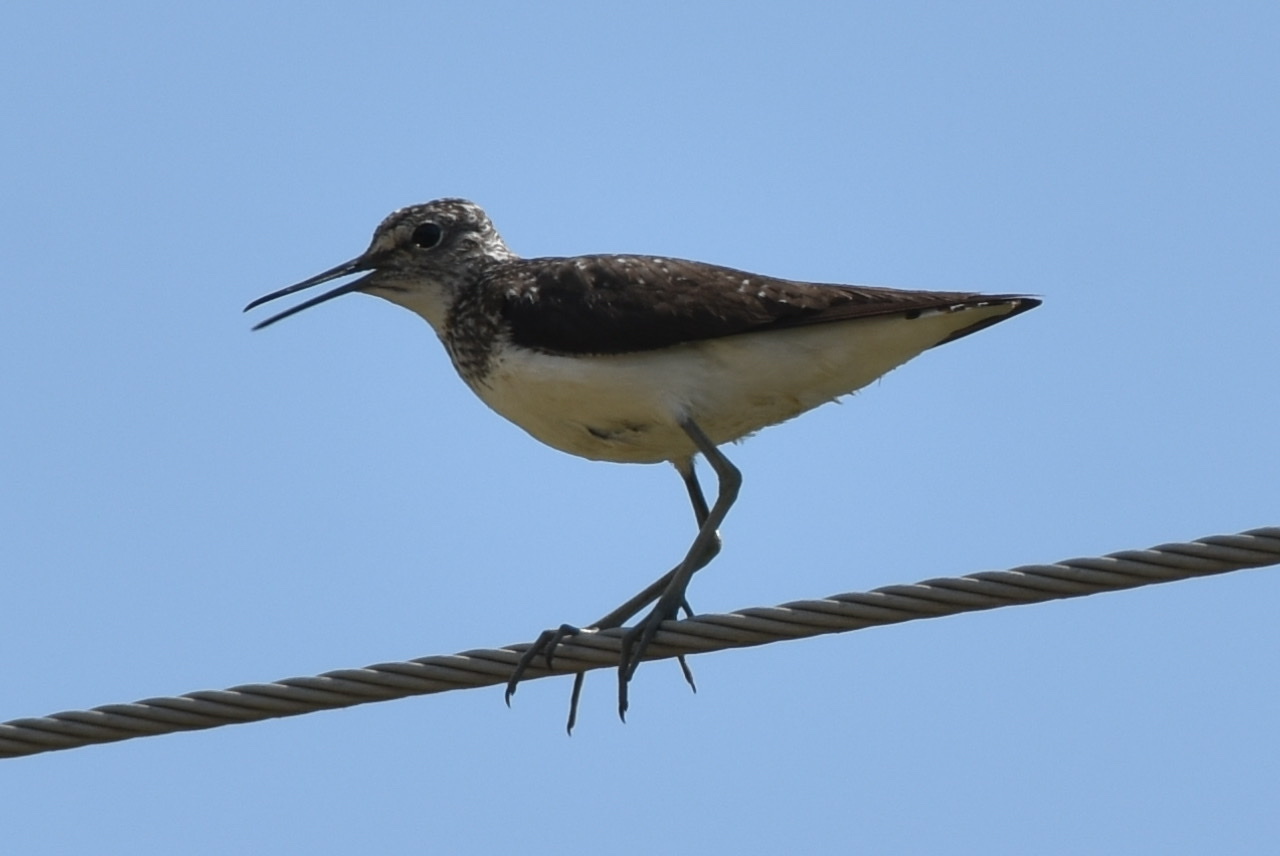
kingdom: Animalia
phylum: Chordata
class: Aves
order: Charadriiformes
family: Scolopacidae
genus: Tringa
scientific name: Tringa ochropus
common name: Green sandpiper
